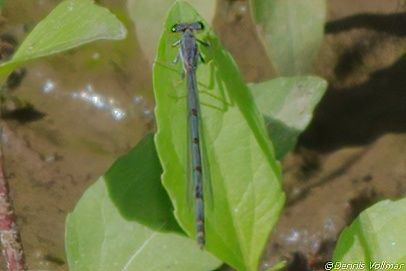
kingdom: Animalia
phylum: Arthropoda
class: Insecta
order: Odonata
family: Coenagrionidae
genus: Ischnura
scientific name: Ischnura posita
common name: Fragile forktail
